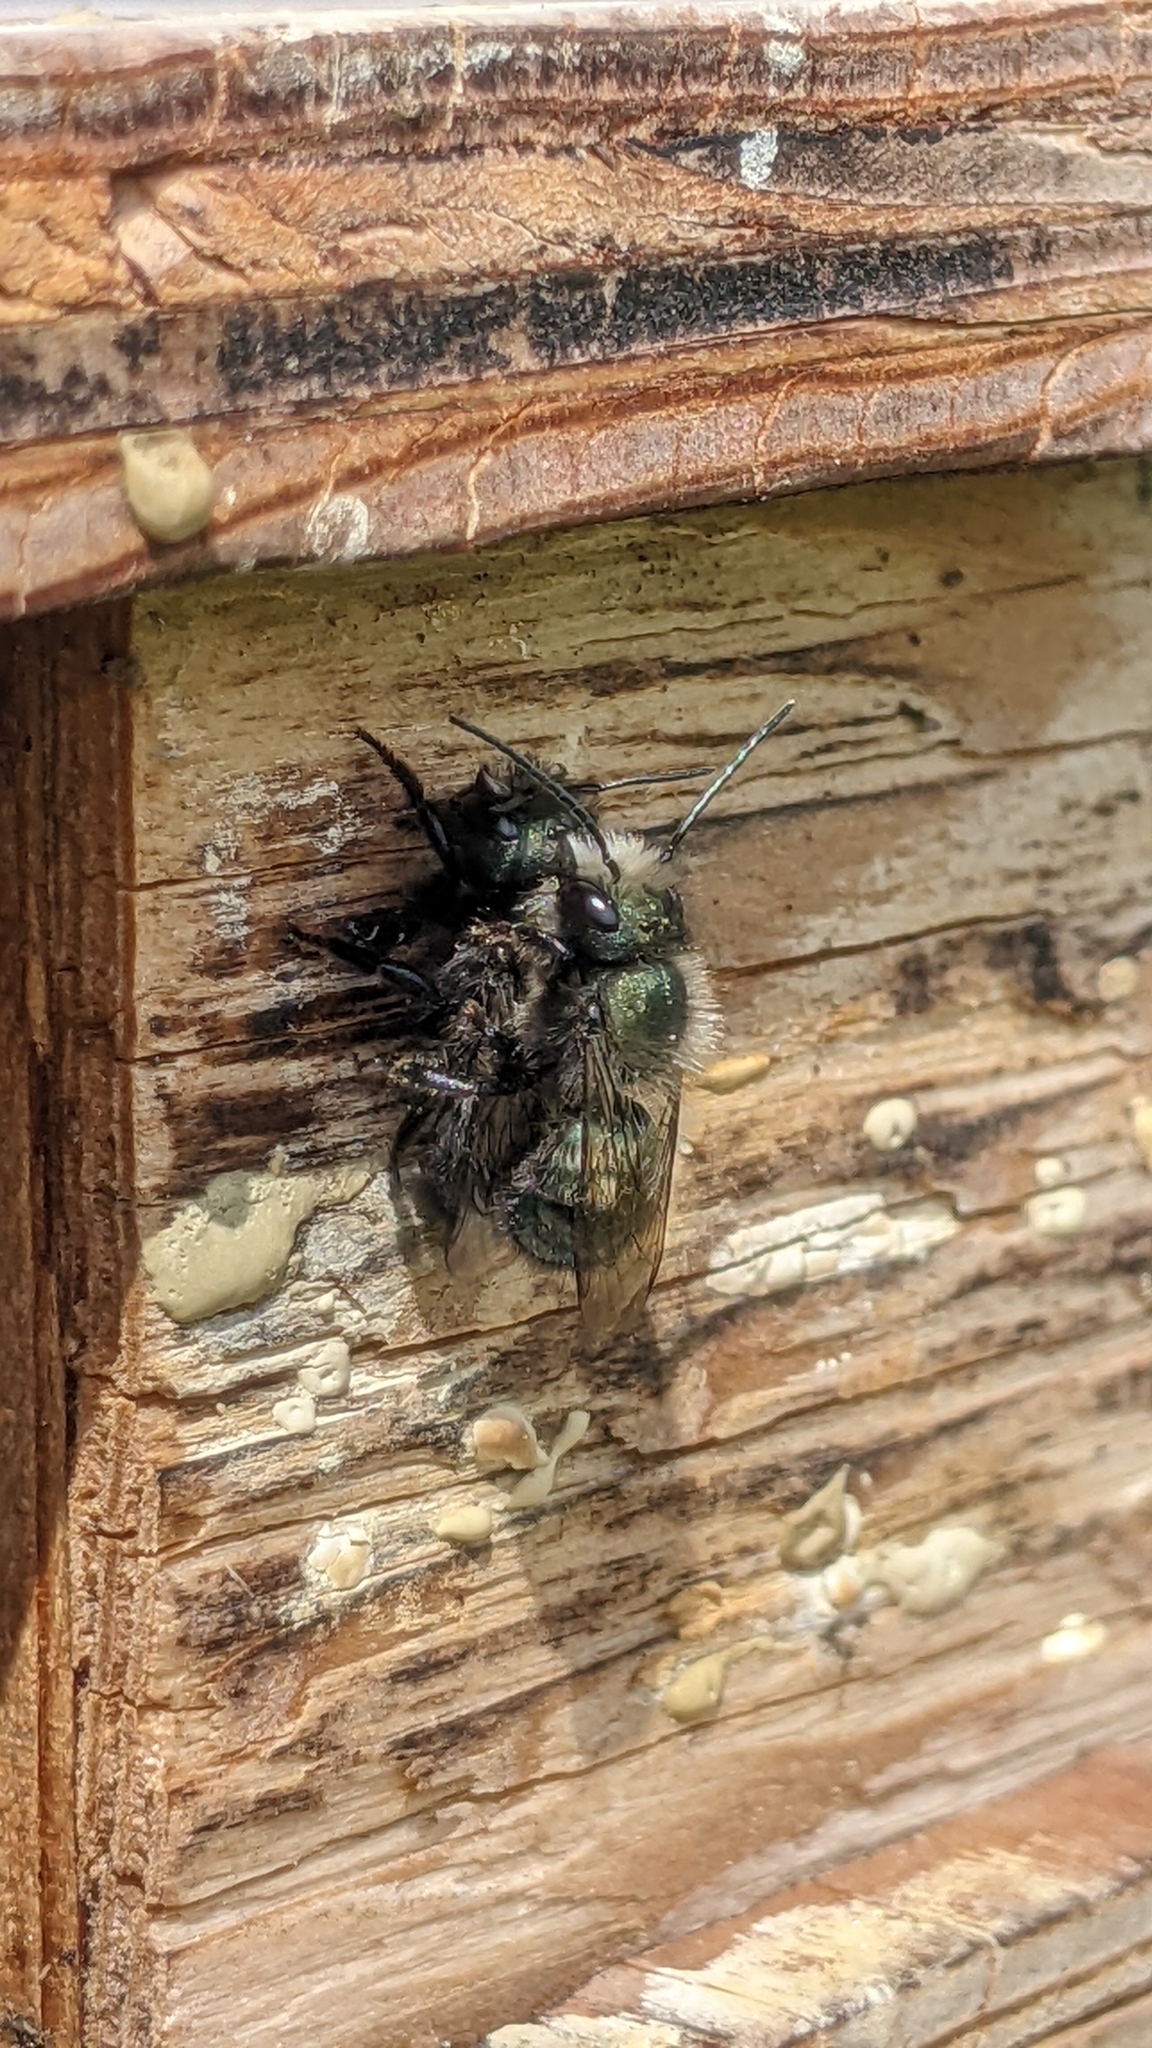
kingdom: Animalia
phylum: Arthropoda
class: Insecta
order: Hymenoptera
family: Megachilidae
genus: Osmia
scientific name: Osmia lignaria
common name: Blue orchard bee
